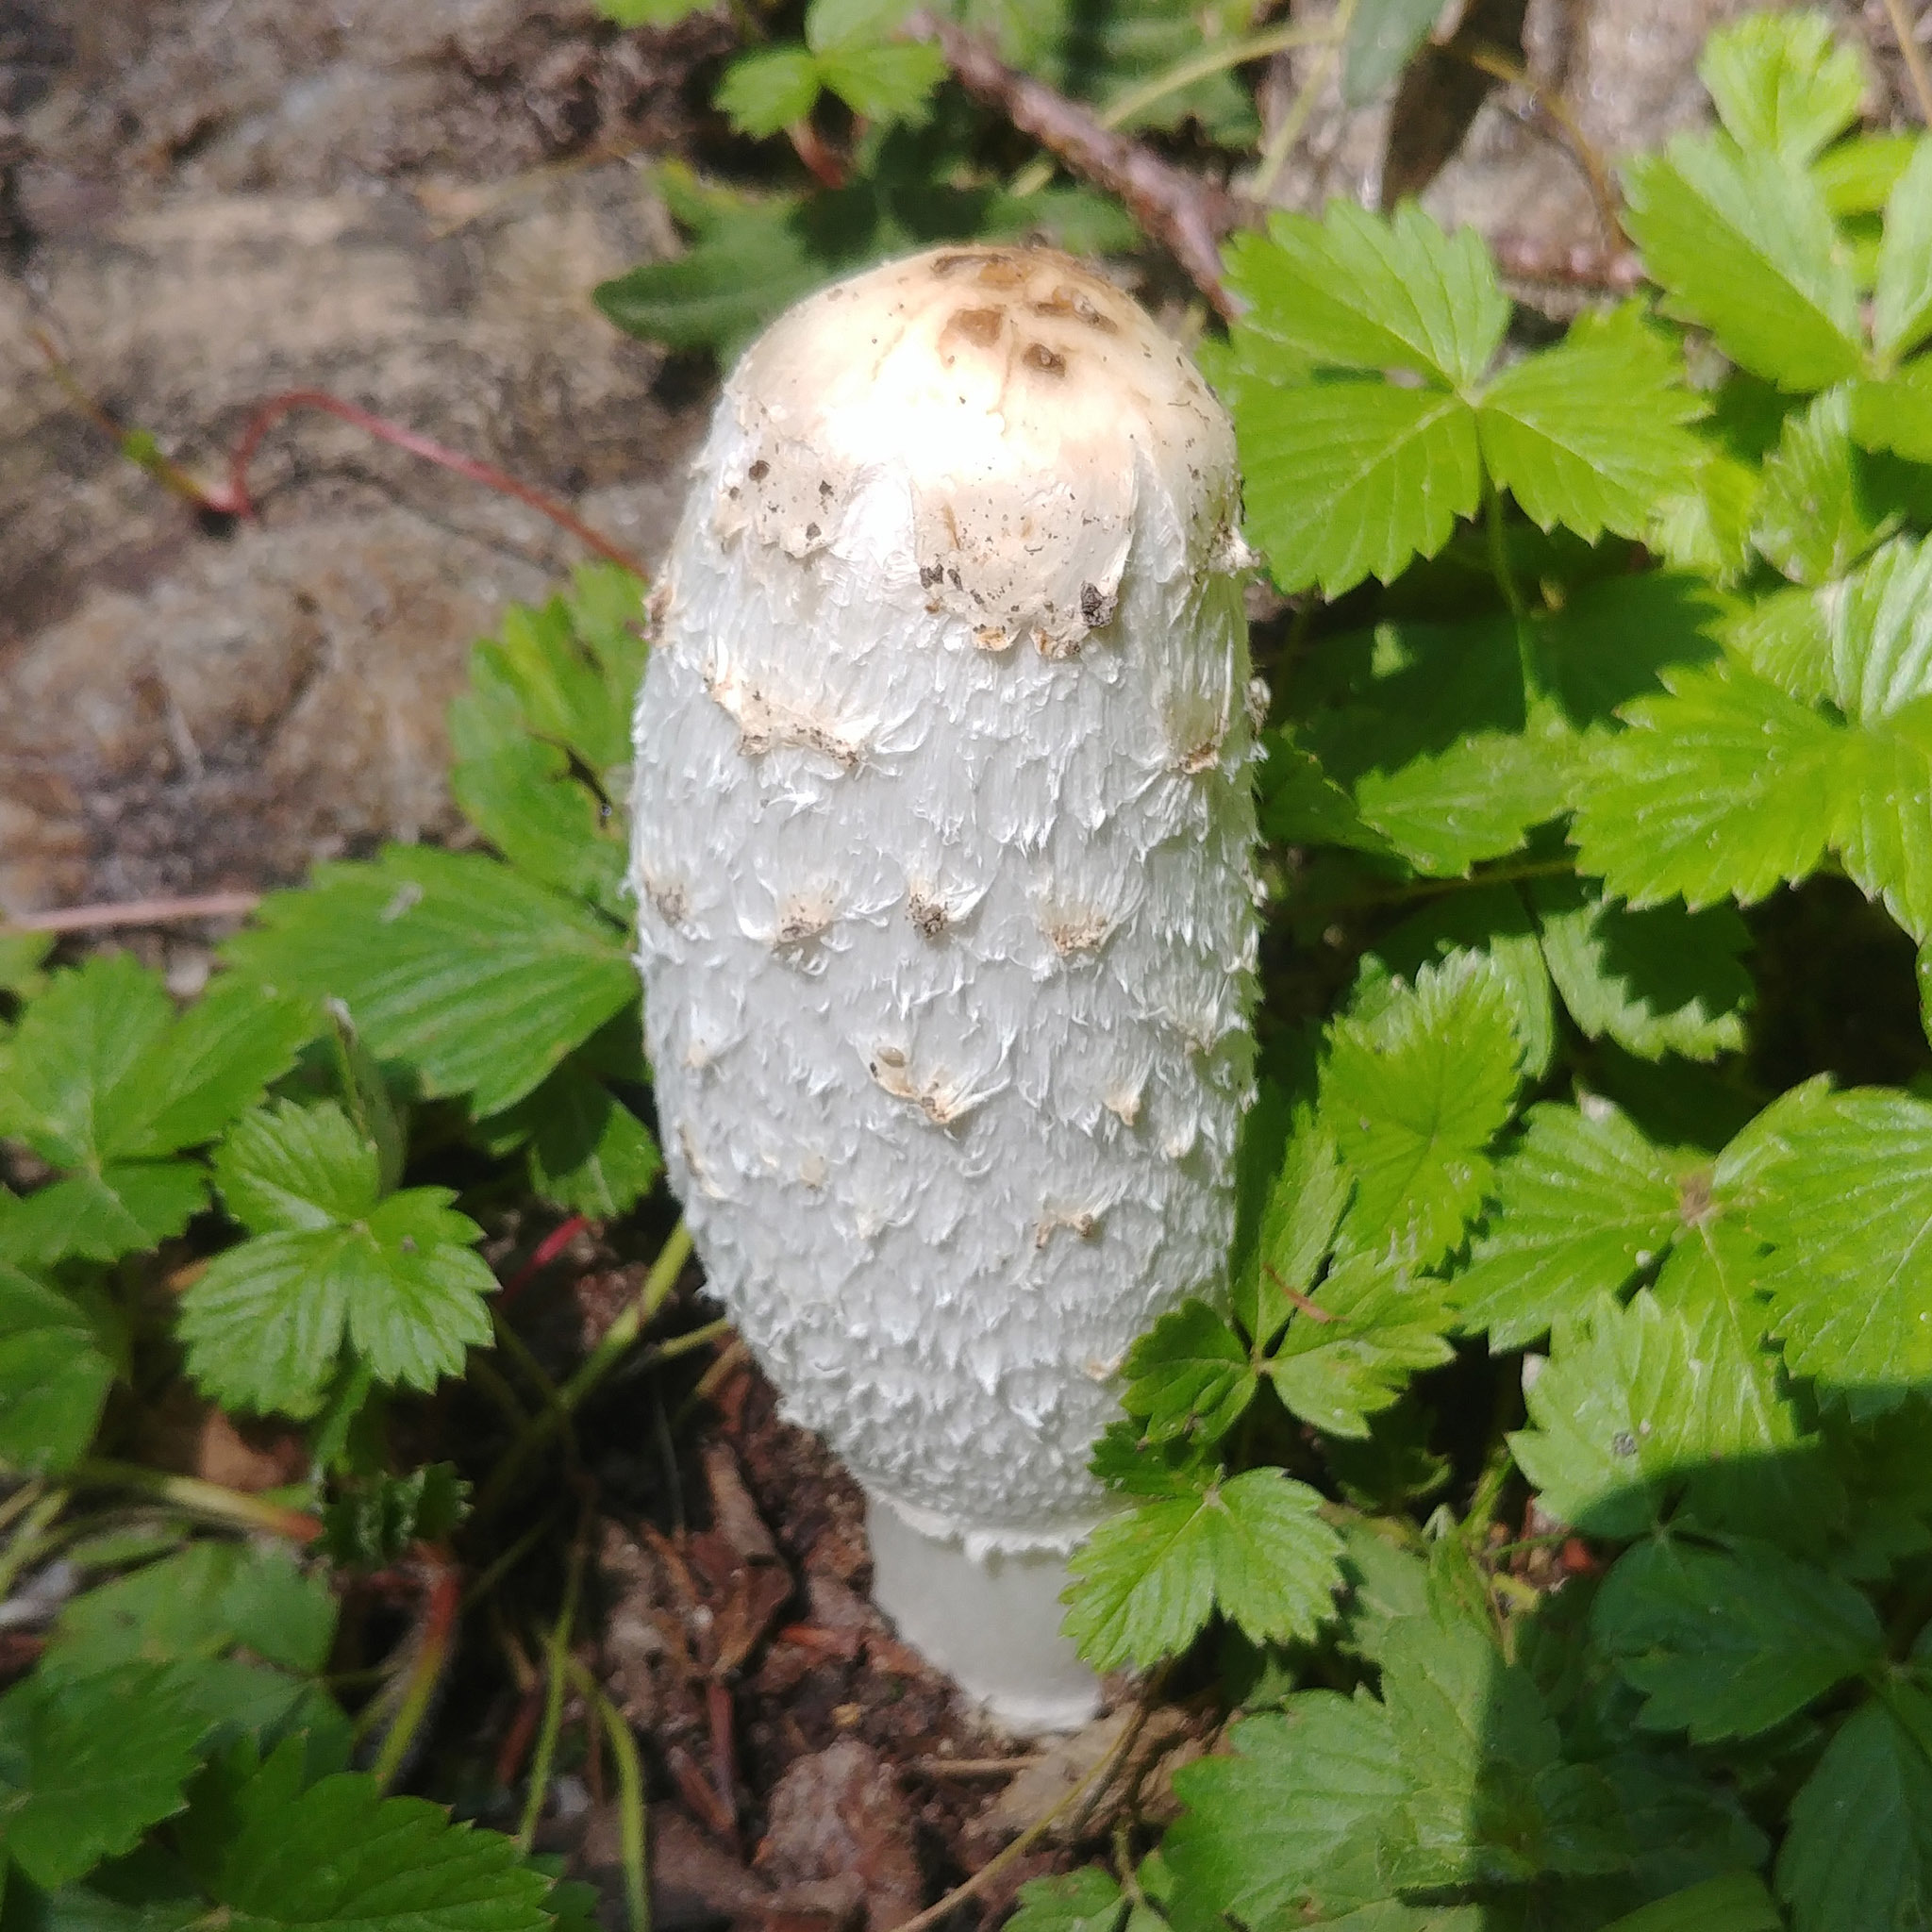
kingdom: Fungi
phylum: Basidiomycota
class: Agaricomycetes
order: Agaricales
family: Agaricaceae
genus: Coprinus
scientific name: Coprinus comatus
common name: Lawyer's wig
